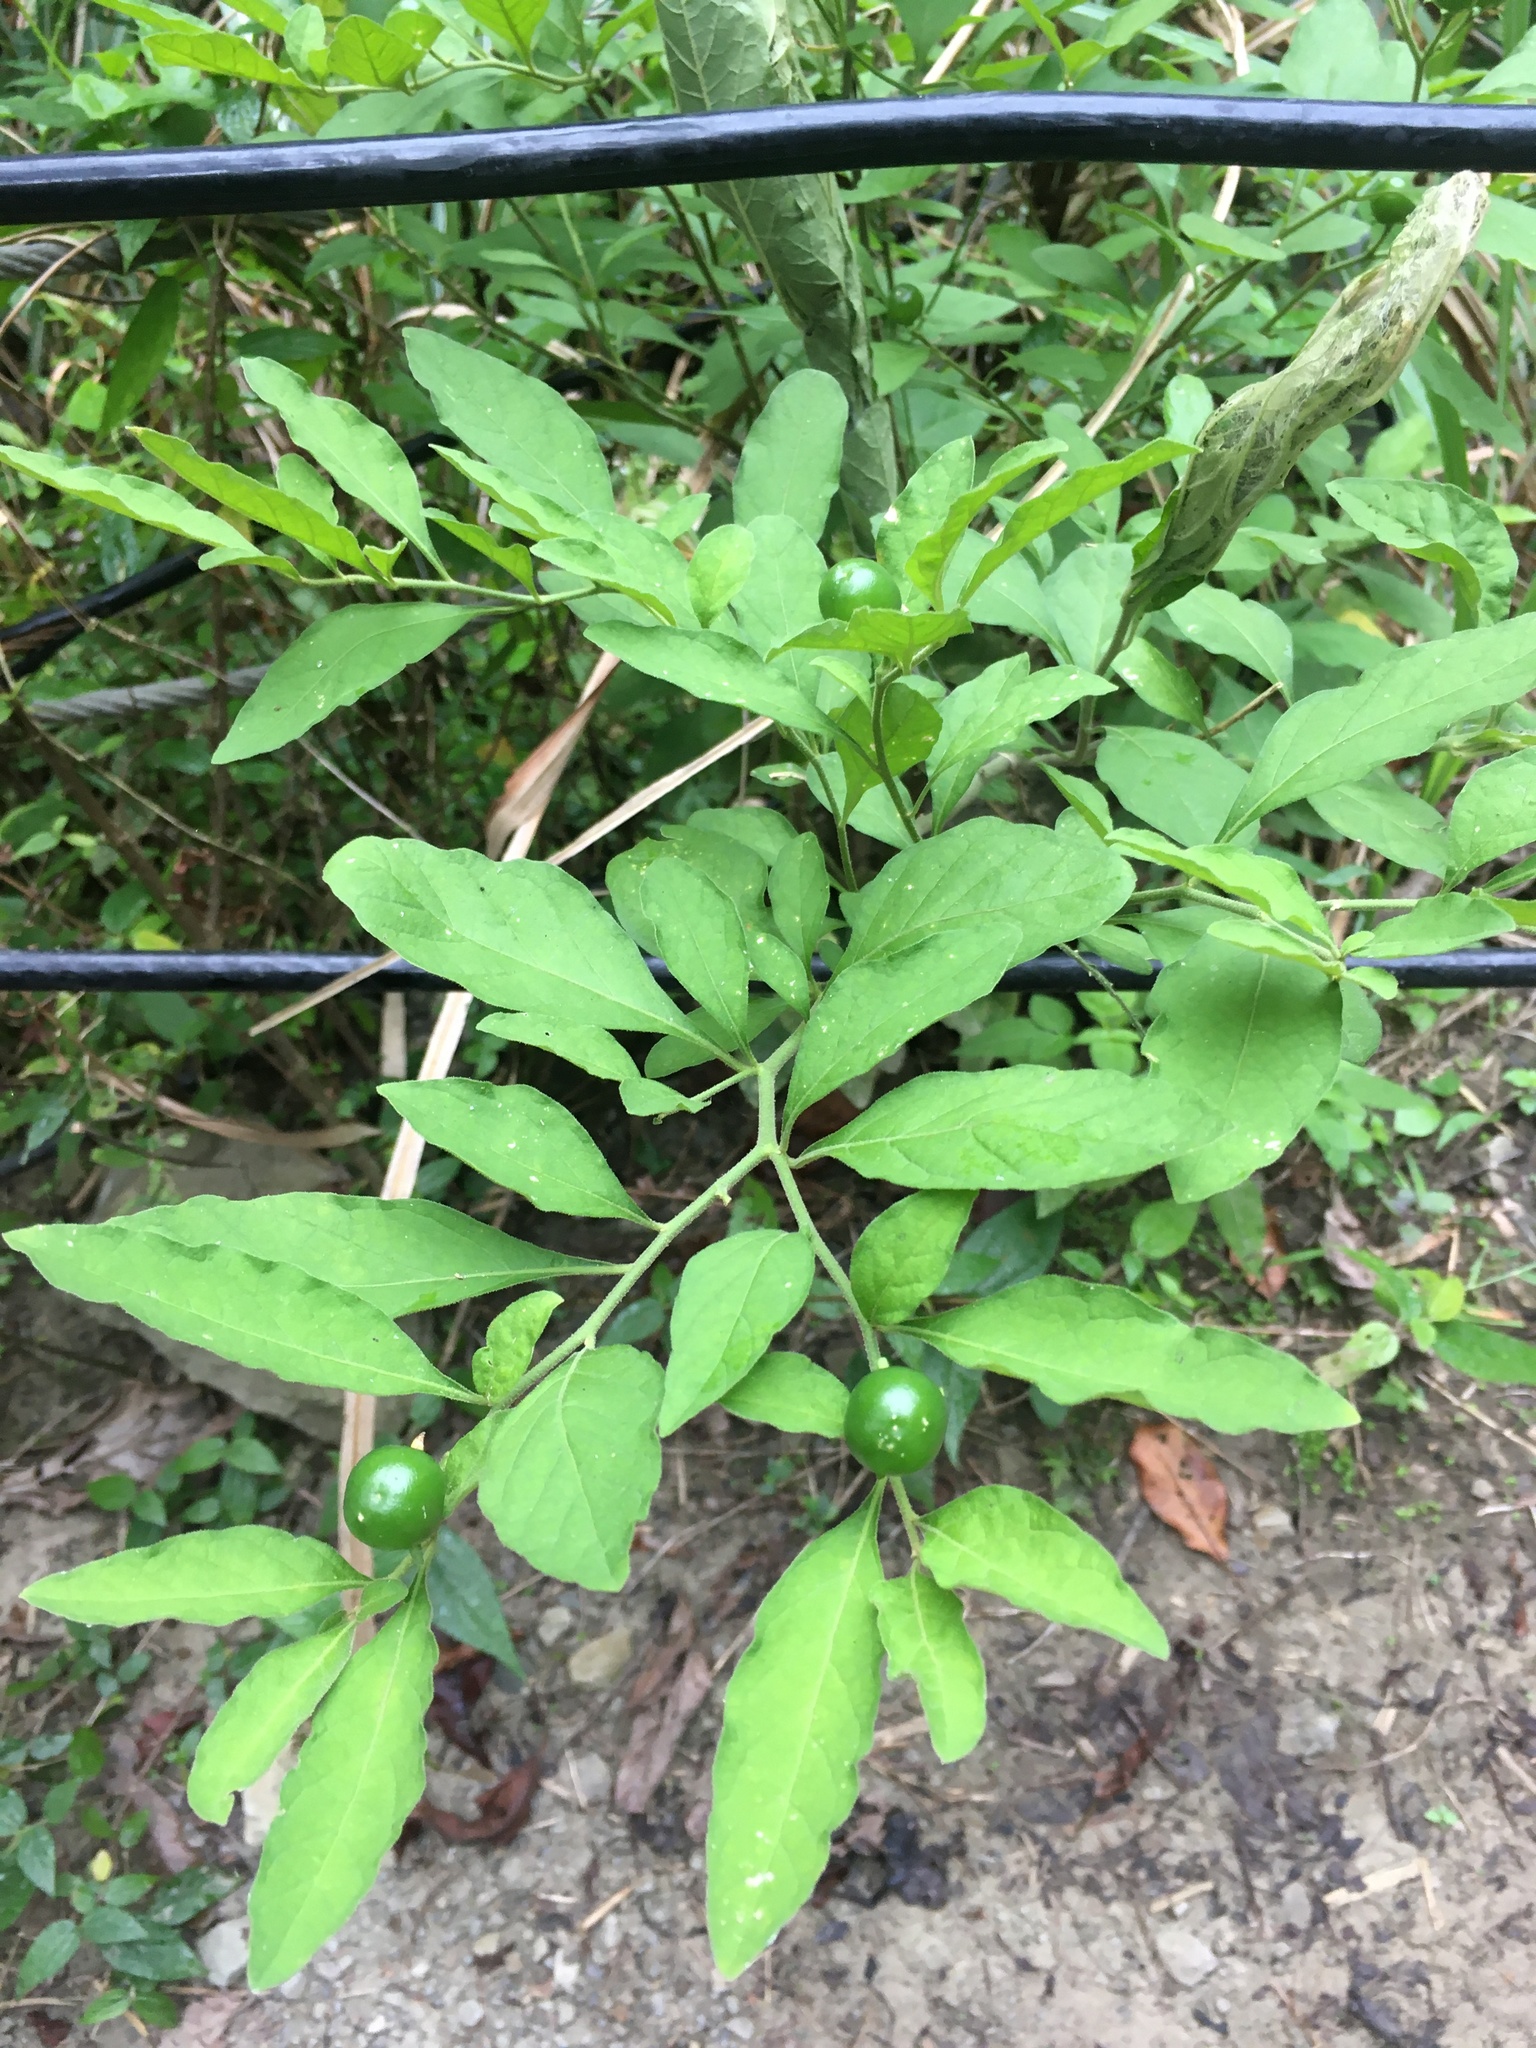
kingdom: Plantae
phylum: Tracheophyta
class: Magnoliopsida
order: Solanales
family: Solanaceae
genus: Solanum
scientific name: Solanum pseudocapsicum
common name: Jerusalem cherry
